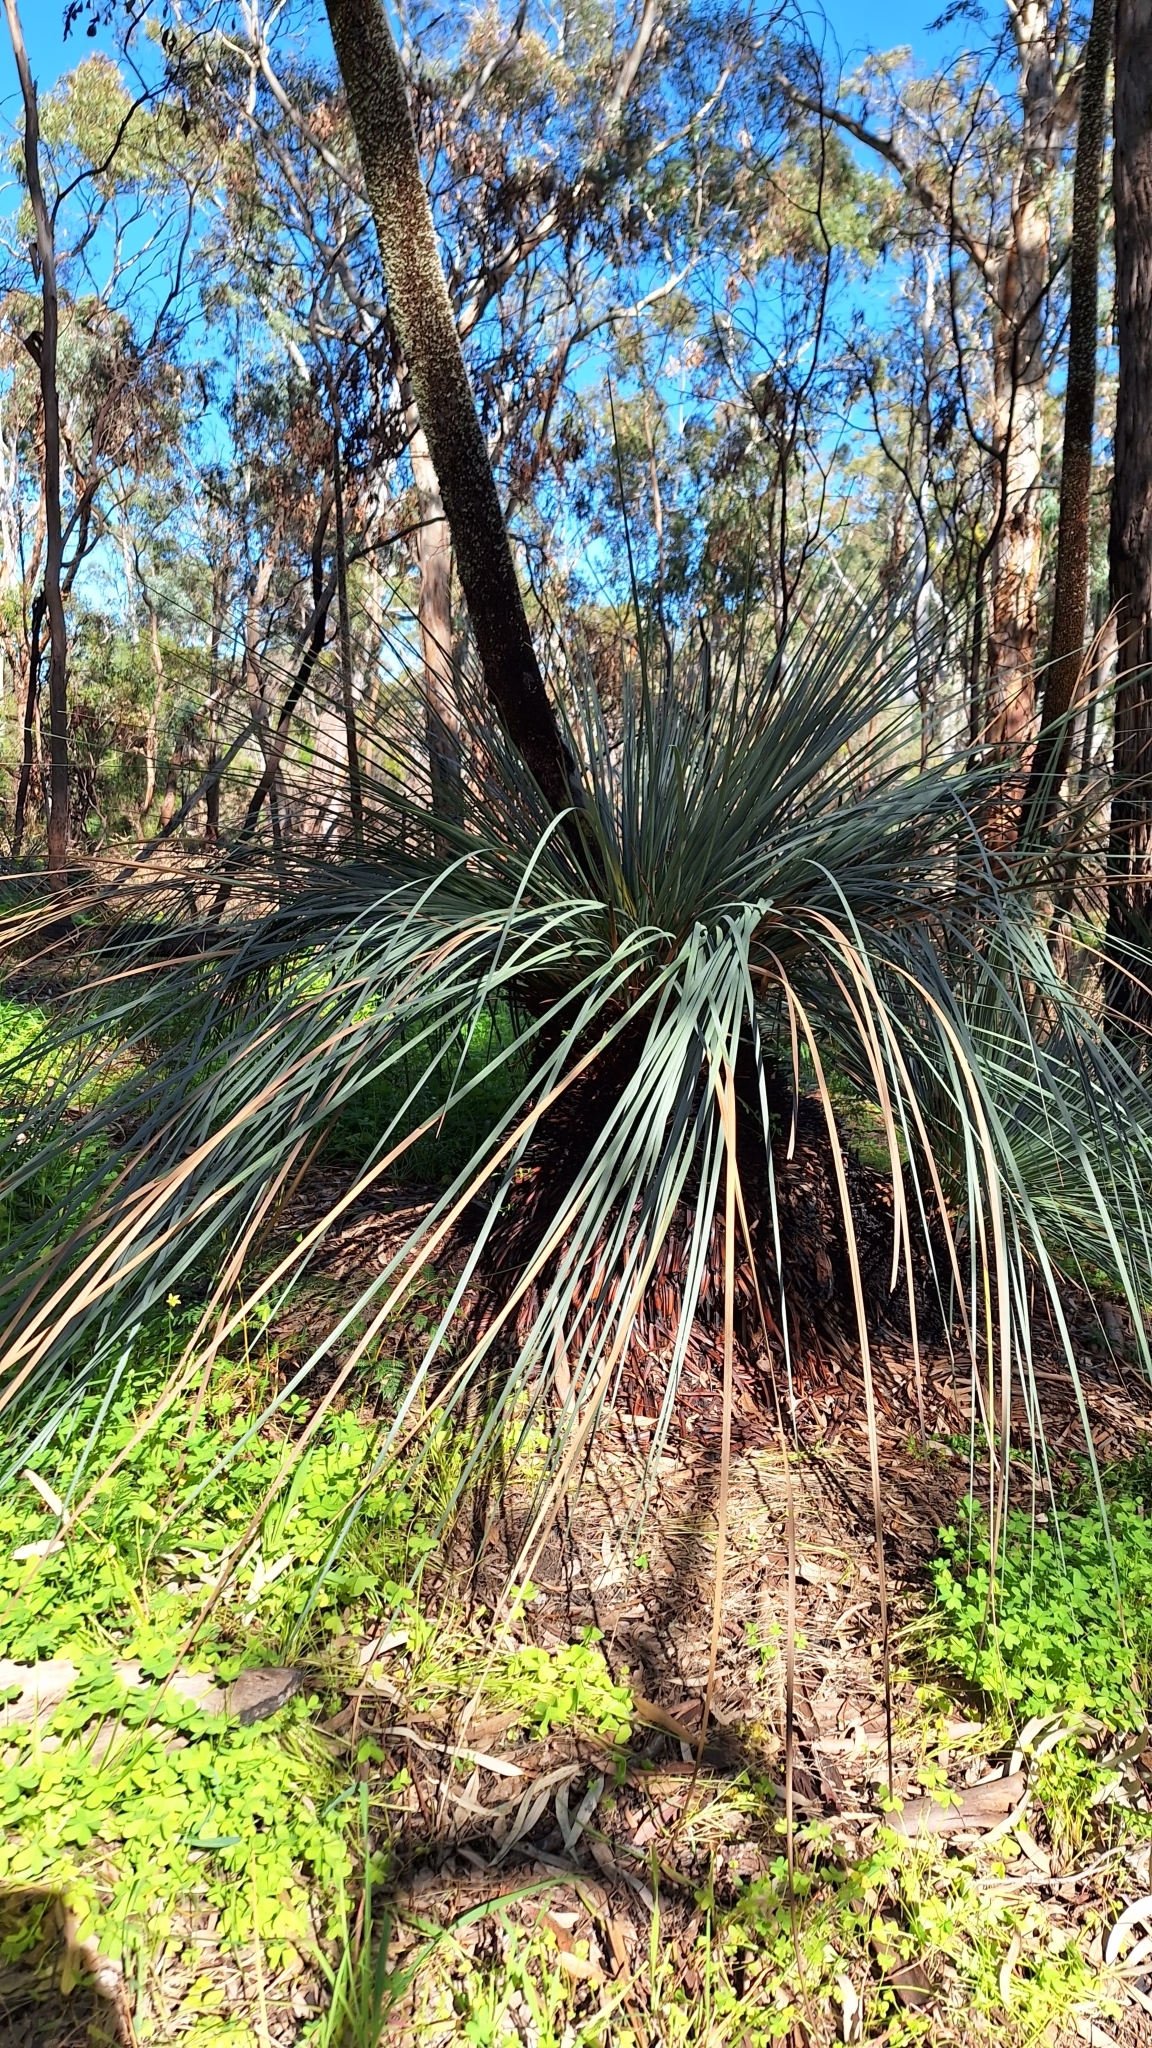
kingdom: Plantae
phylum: Tracheophyta
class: Liliopsida
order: Asparagales
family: Asphodelaceae
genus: Xanthorrhoea
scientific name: Xanthorrhoea semiplana
